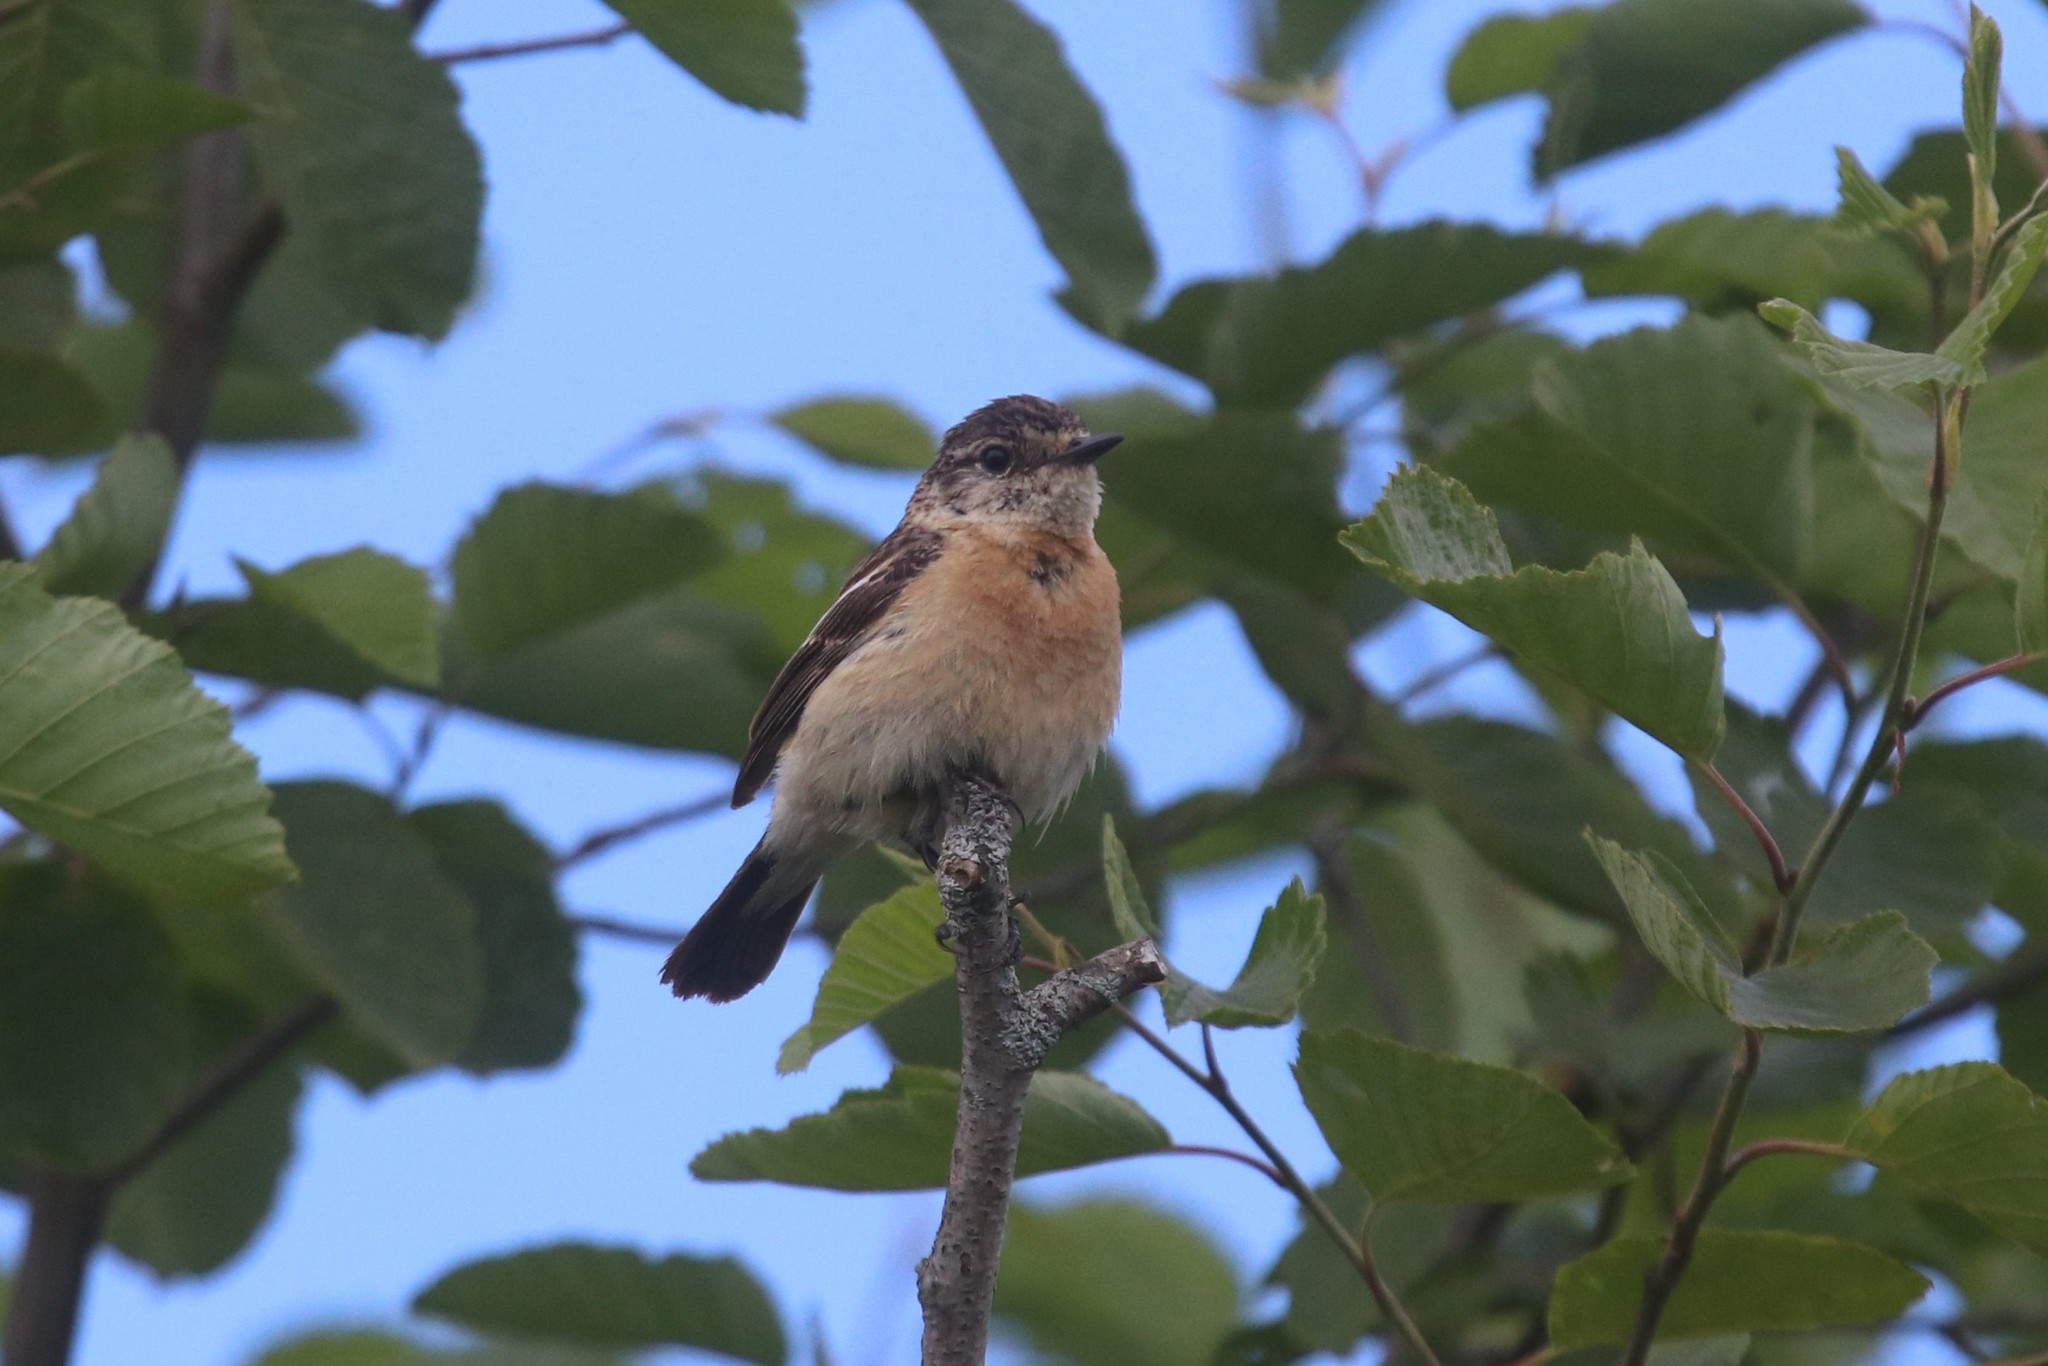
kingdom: Animalia
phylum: Chordata
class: Aves
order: Passeriformes
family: Muscicapidae
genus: Saxicola
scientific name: Saxicola maurus
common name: Siberian stonechat
